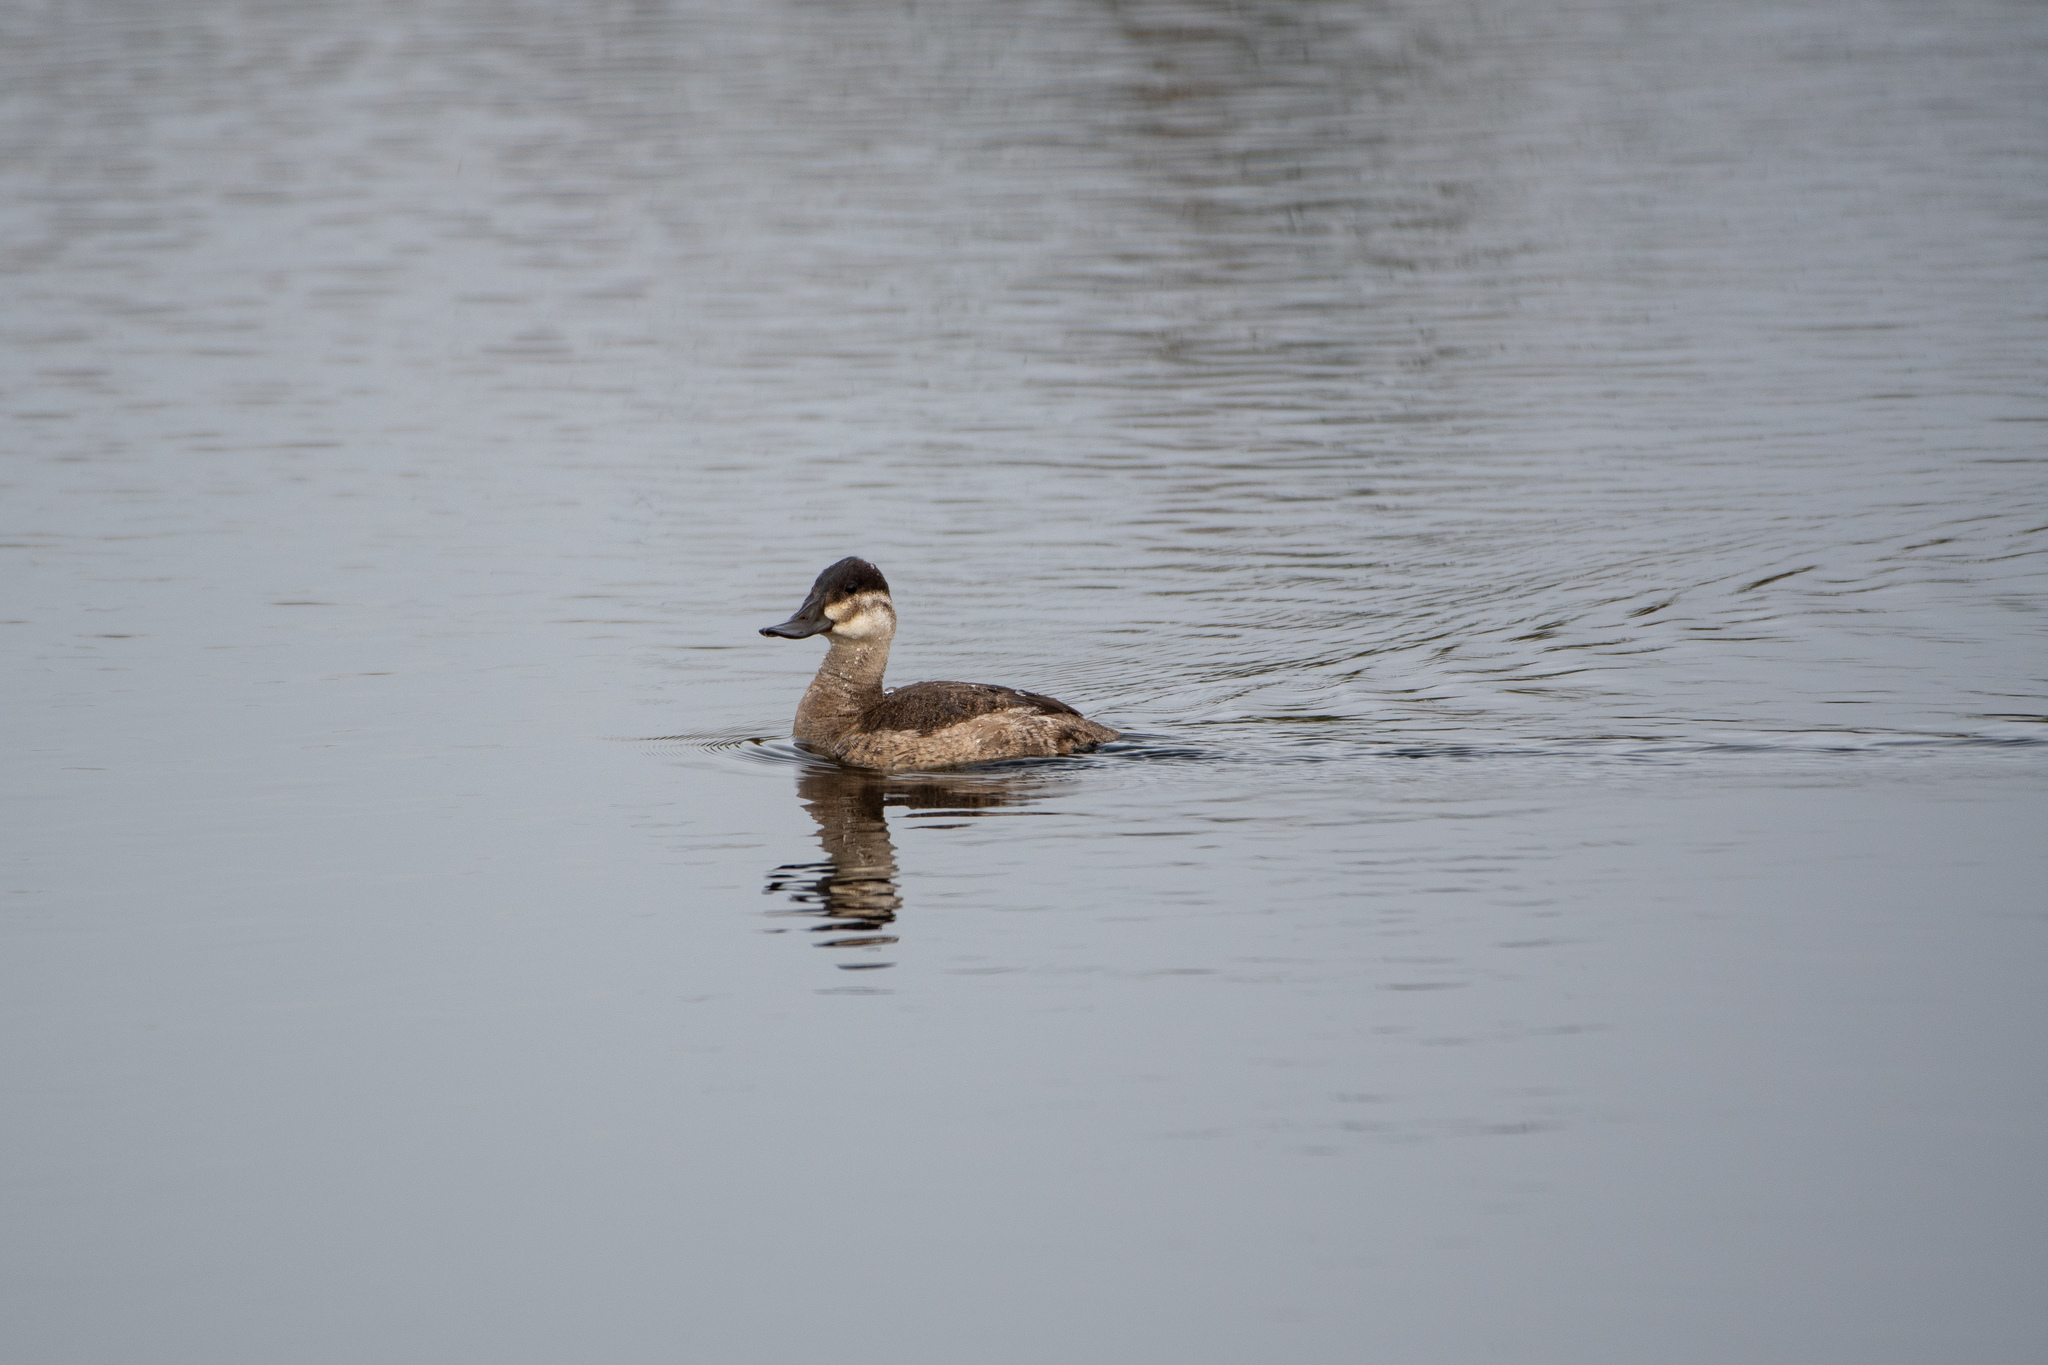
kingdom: Animalia
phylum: Chordata
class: Aves
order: Anseriformes
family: Anatidae
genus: Oxyura
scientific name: Oxyura jamaicensis
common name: Ruddy duck
